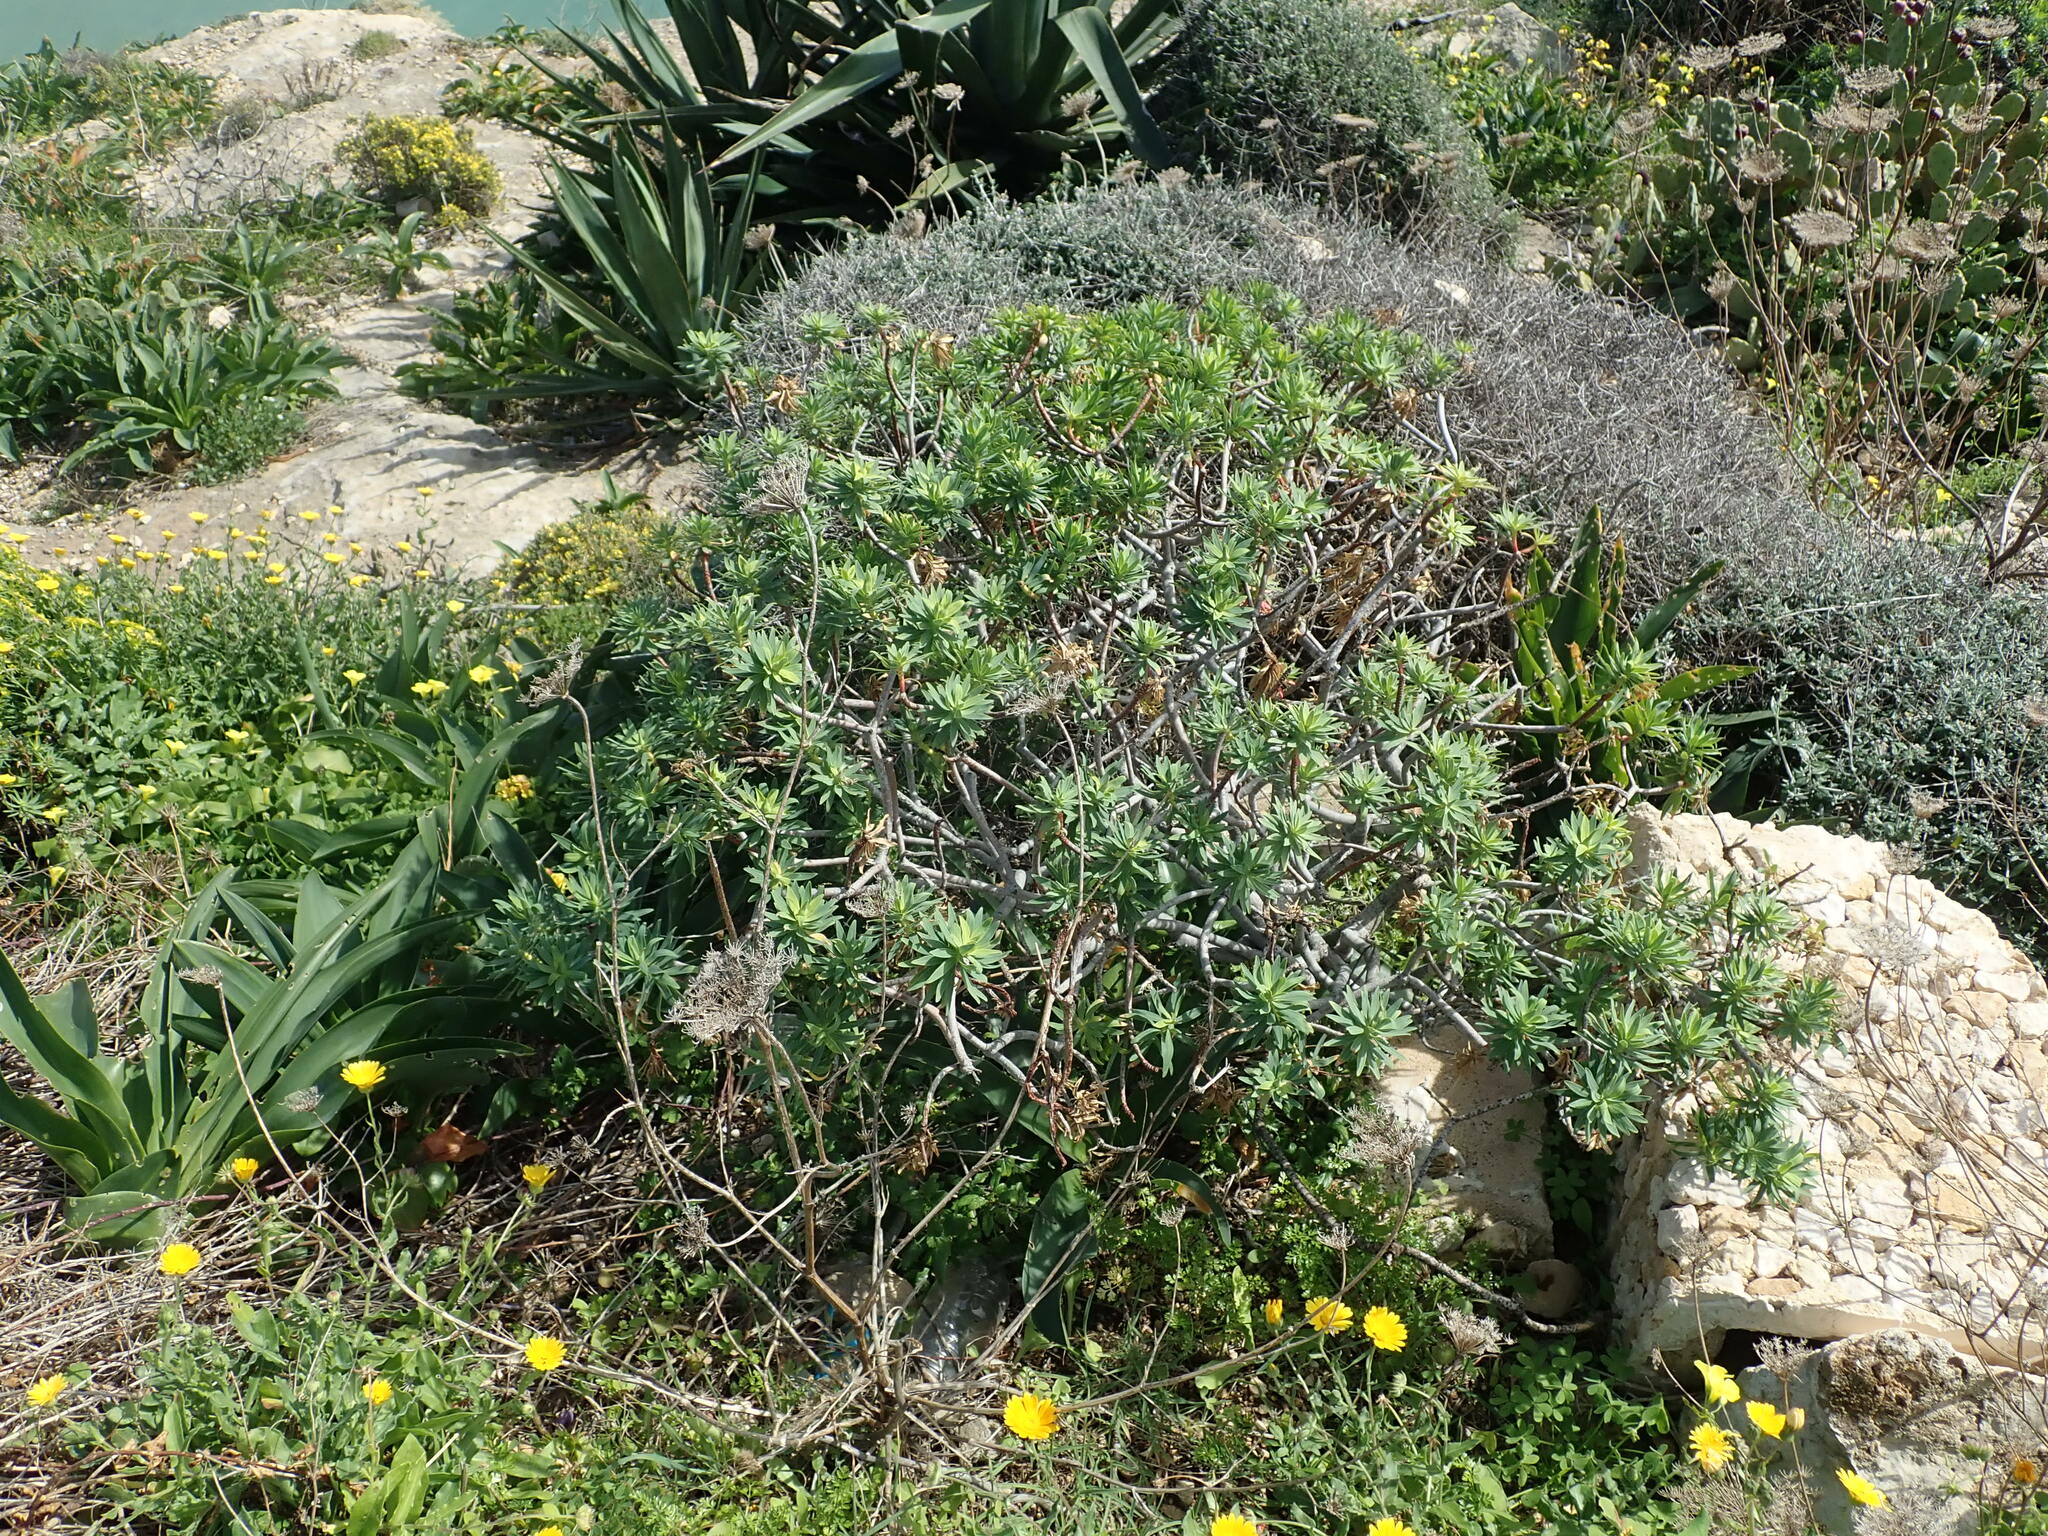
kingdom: Plantae
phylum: Tracheophyta
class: Magnoliopsida
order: Malpighiales
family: Euphorbiaceae
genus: Euphorbia
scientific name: Euphorbia dendroides
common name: Tree spurge
